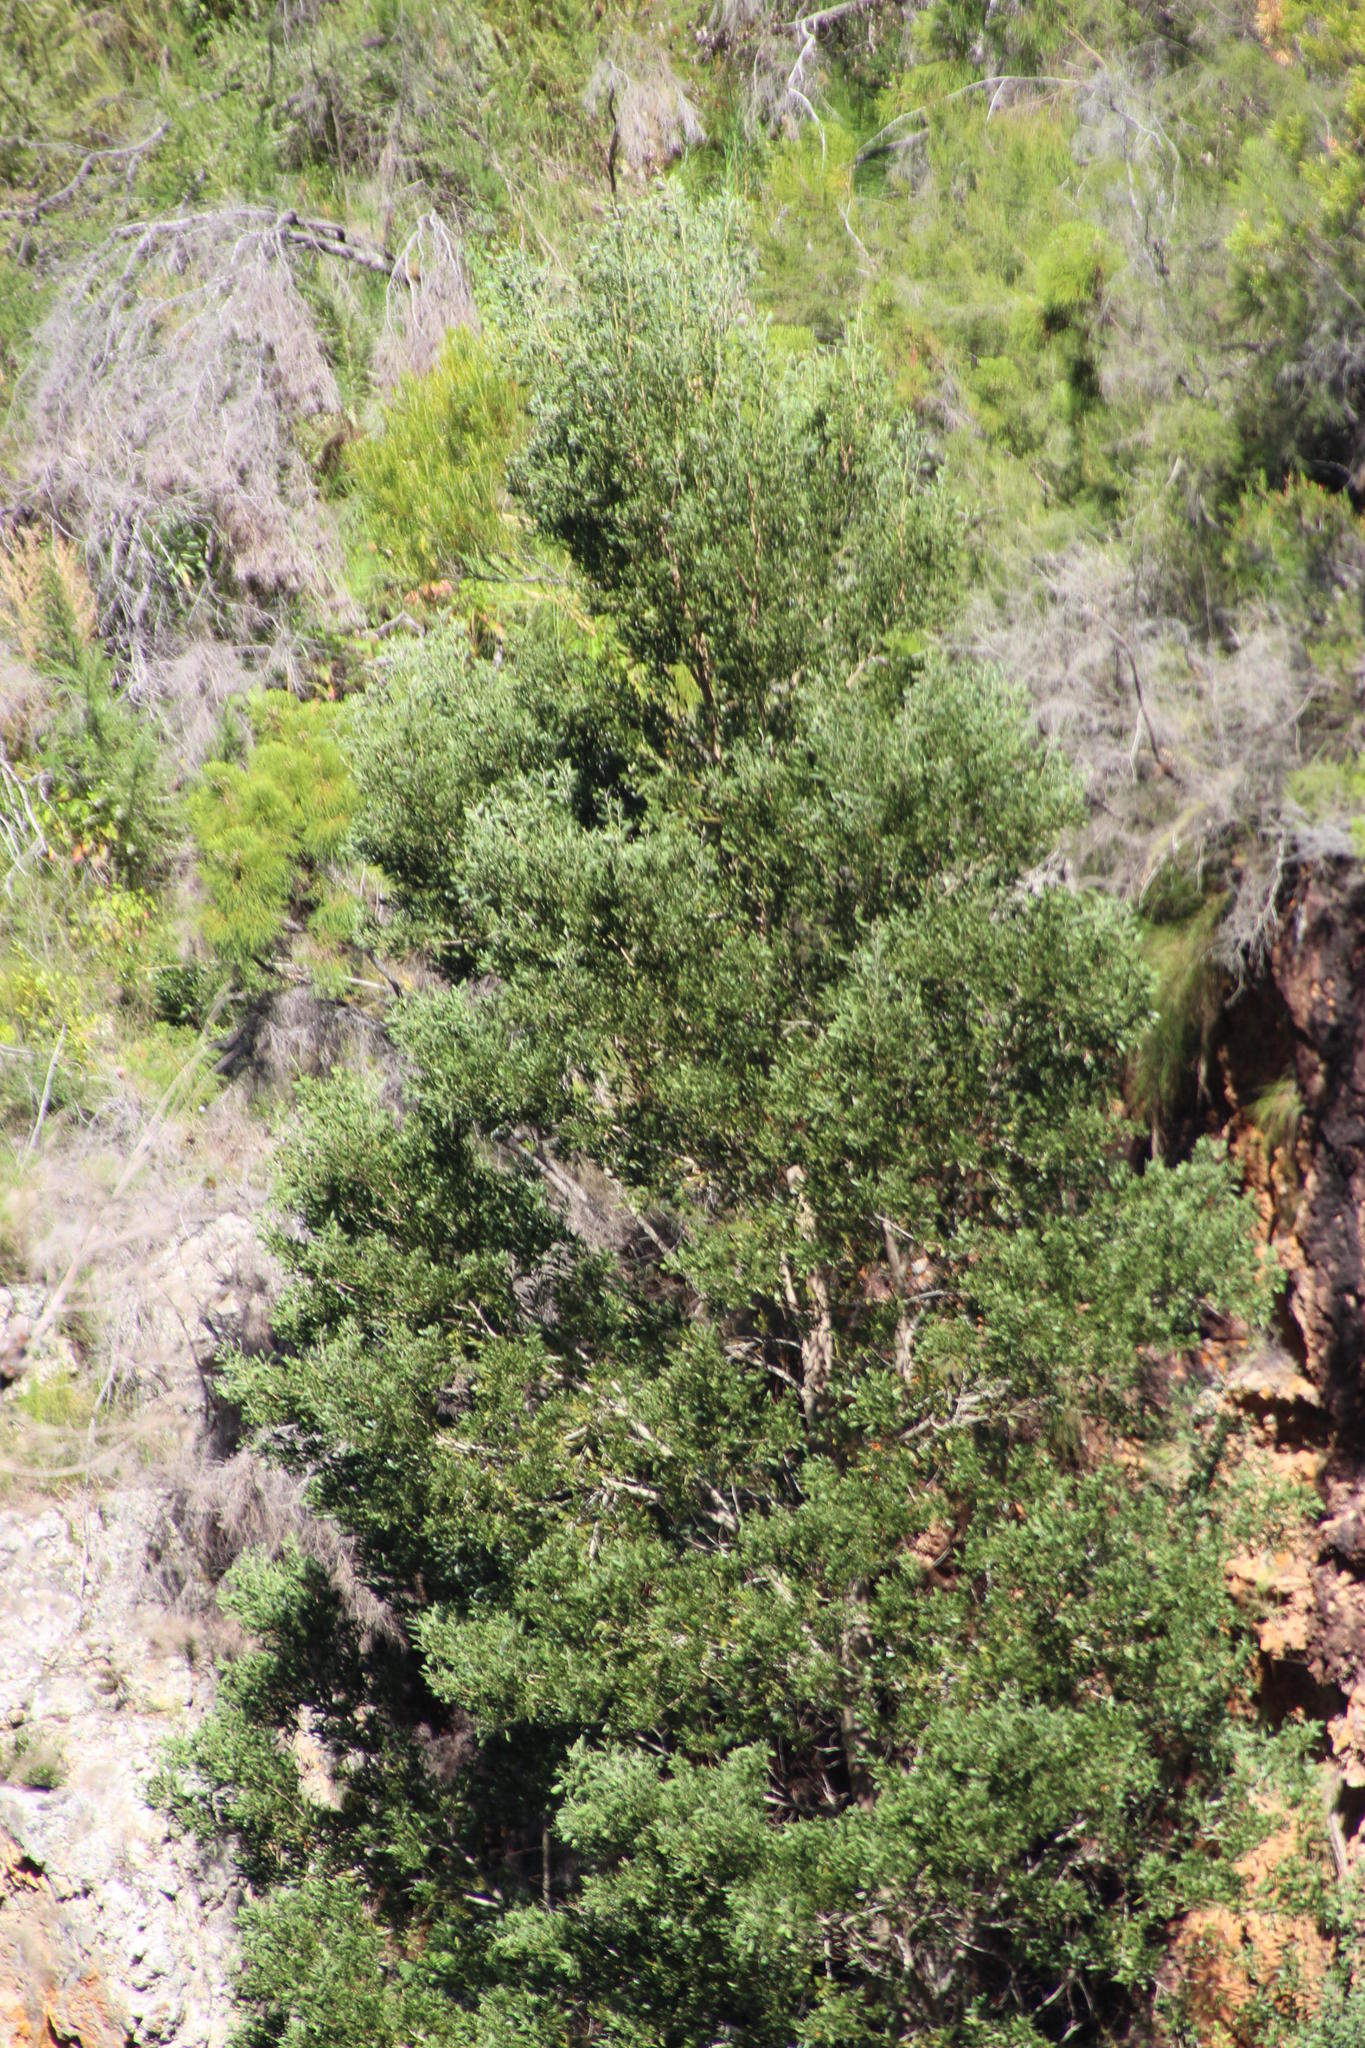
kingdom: Plantae
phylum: Tracheophyta
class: Magnoliopsida
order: Fabales
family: Fabaceae
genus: Acacia
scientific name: Acacia melanoxylon
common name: Blackwood
